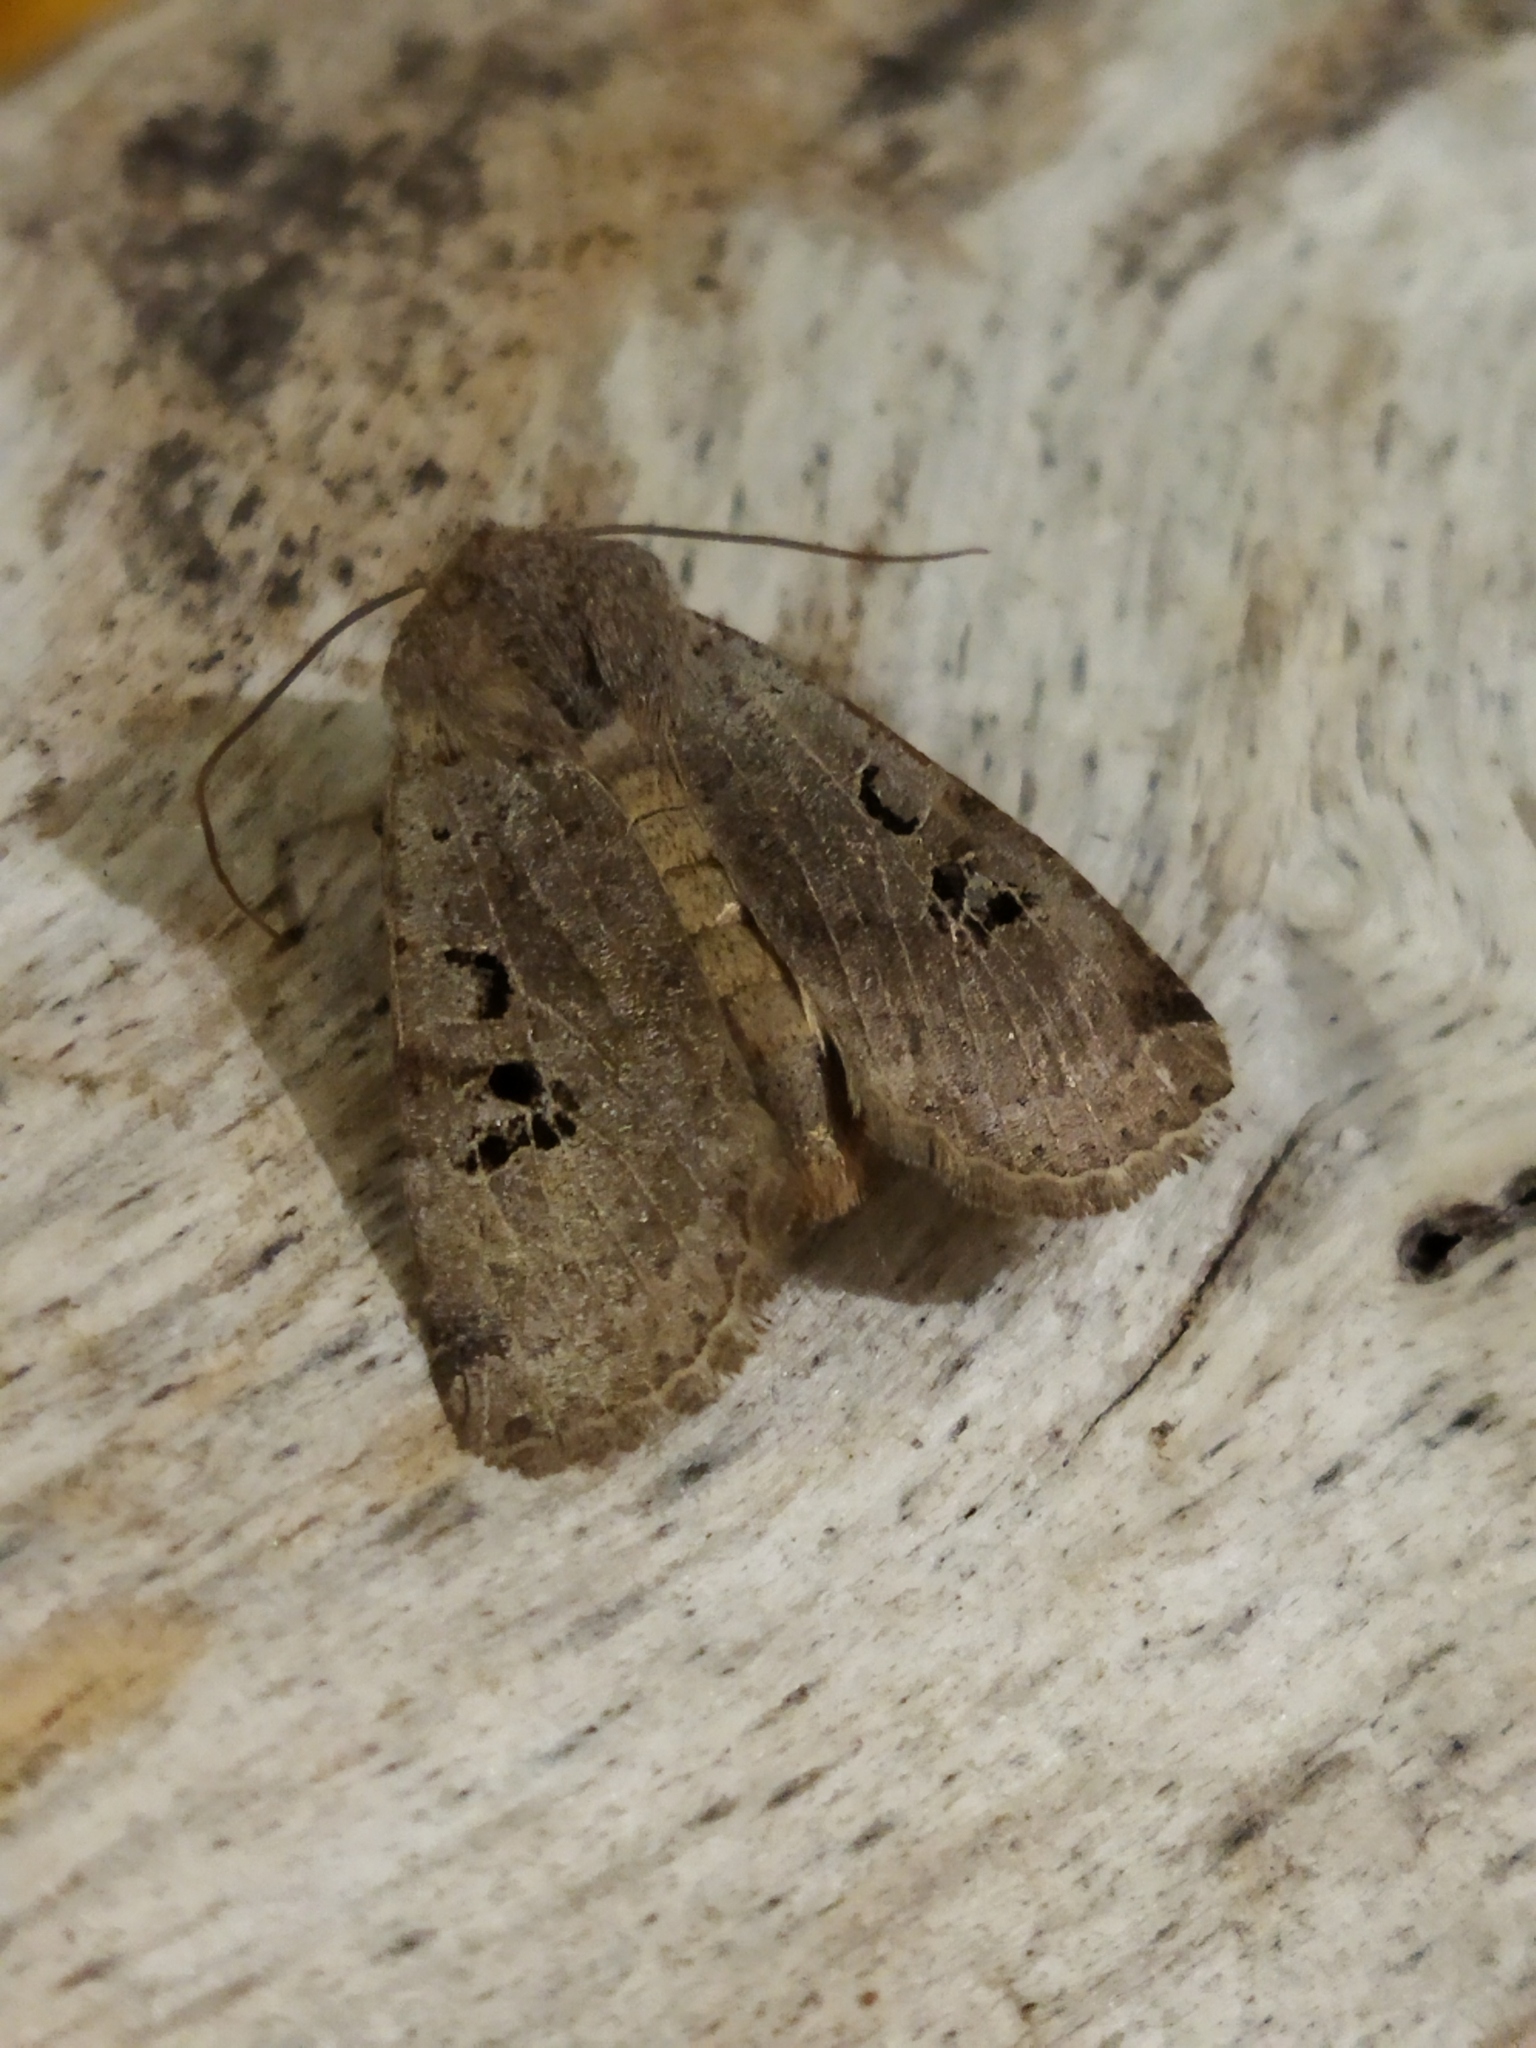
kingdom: Animalia
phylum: Arthropoda
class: Insecta
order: Lepidoptera
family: Noctuidae
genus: Conistra
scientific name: Conistra rubiginosa
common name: Black-spotted chestnut
